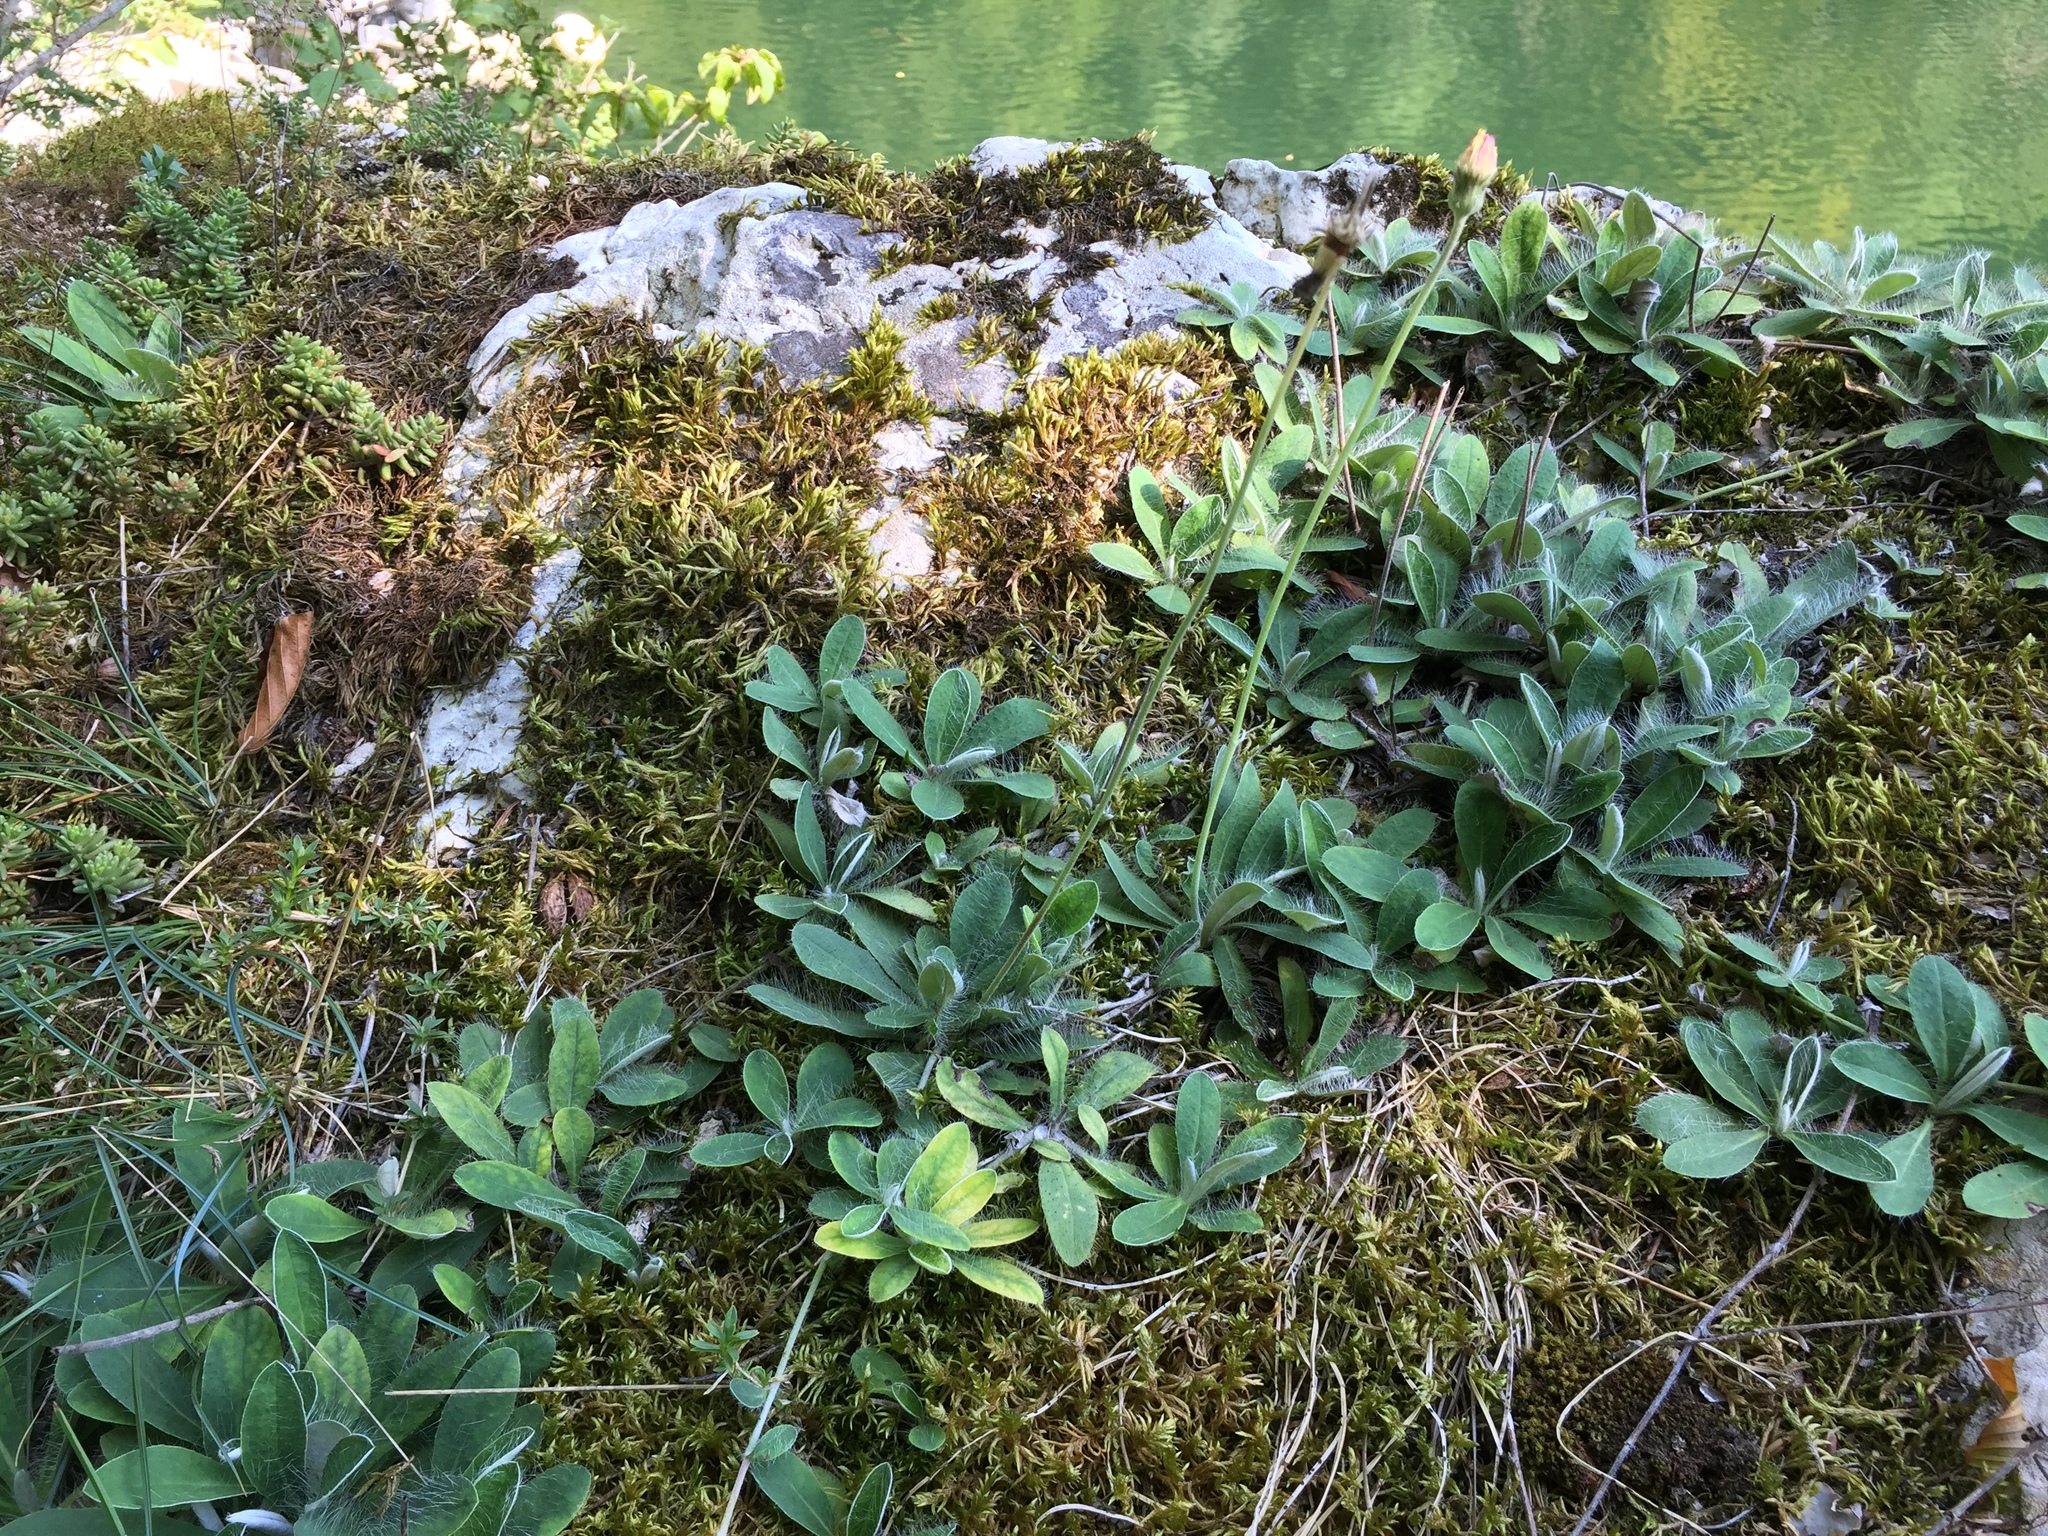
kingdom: Plantae
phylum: Tracheophyta
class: Magnoliopsida
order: Asterales
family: Asteraceae
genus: Pilosella
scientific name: Pilosella officinarum
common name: Mouse-ear hawkweed
